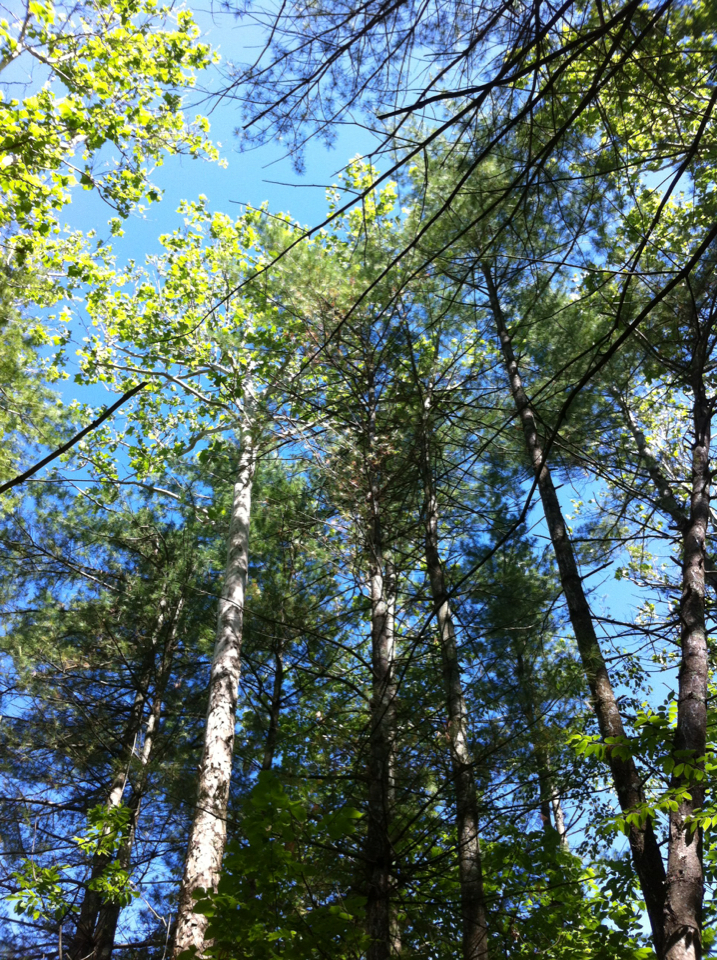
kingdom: Plantae
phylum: Tracheophyta
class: Pinopsida
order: Pinales
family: Pinaceae
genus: Pinus
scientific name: Pinus strobus
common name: Weymouth pine
